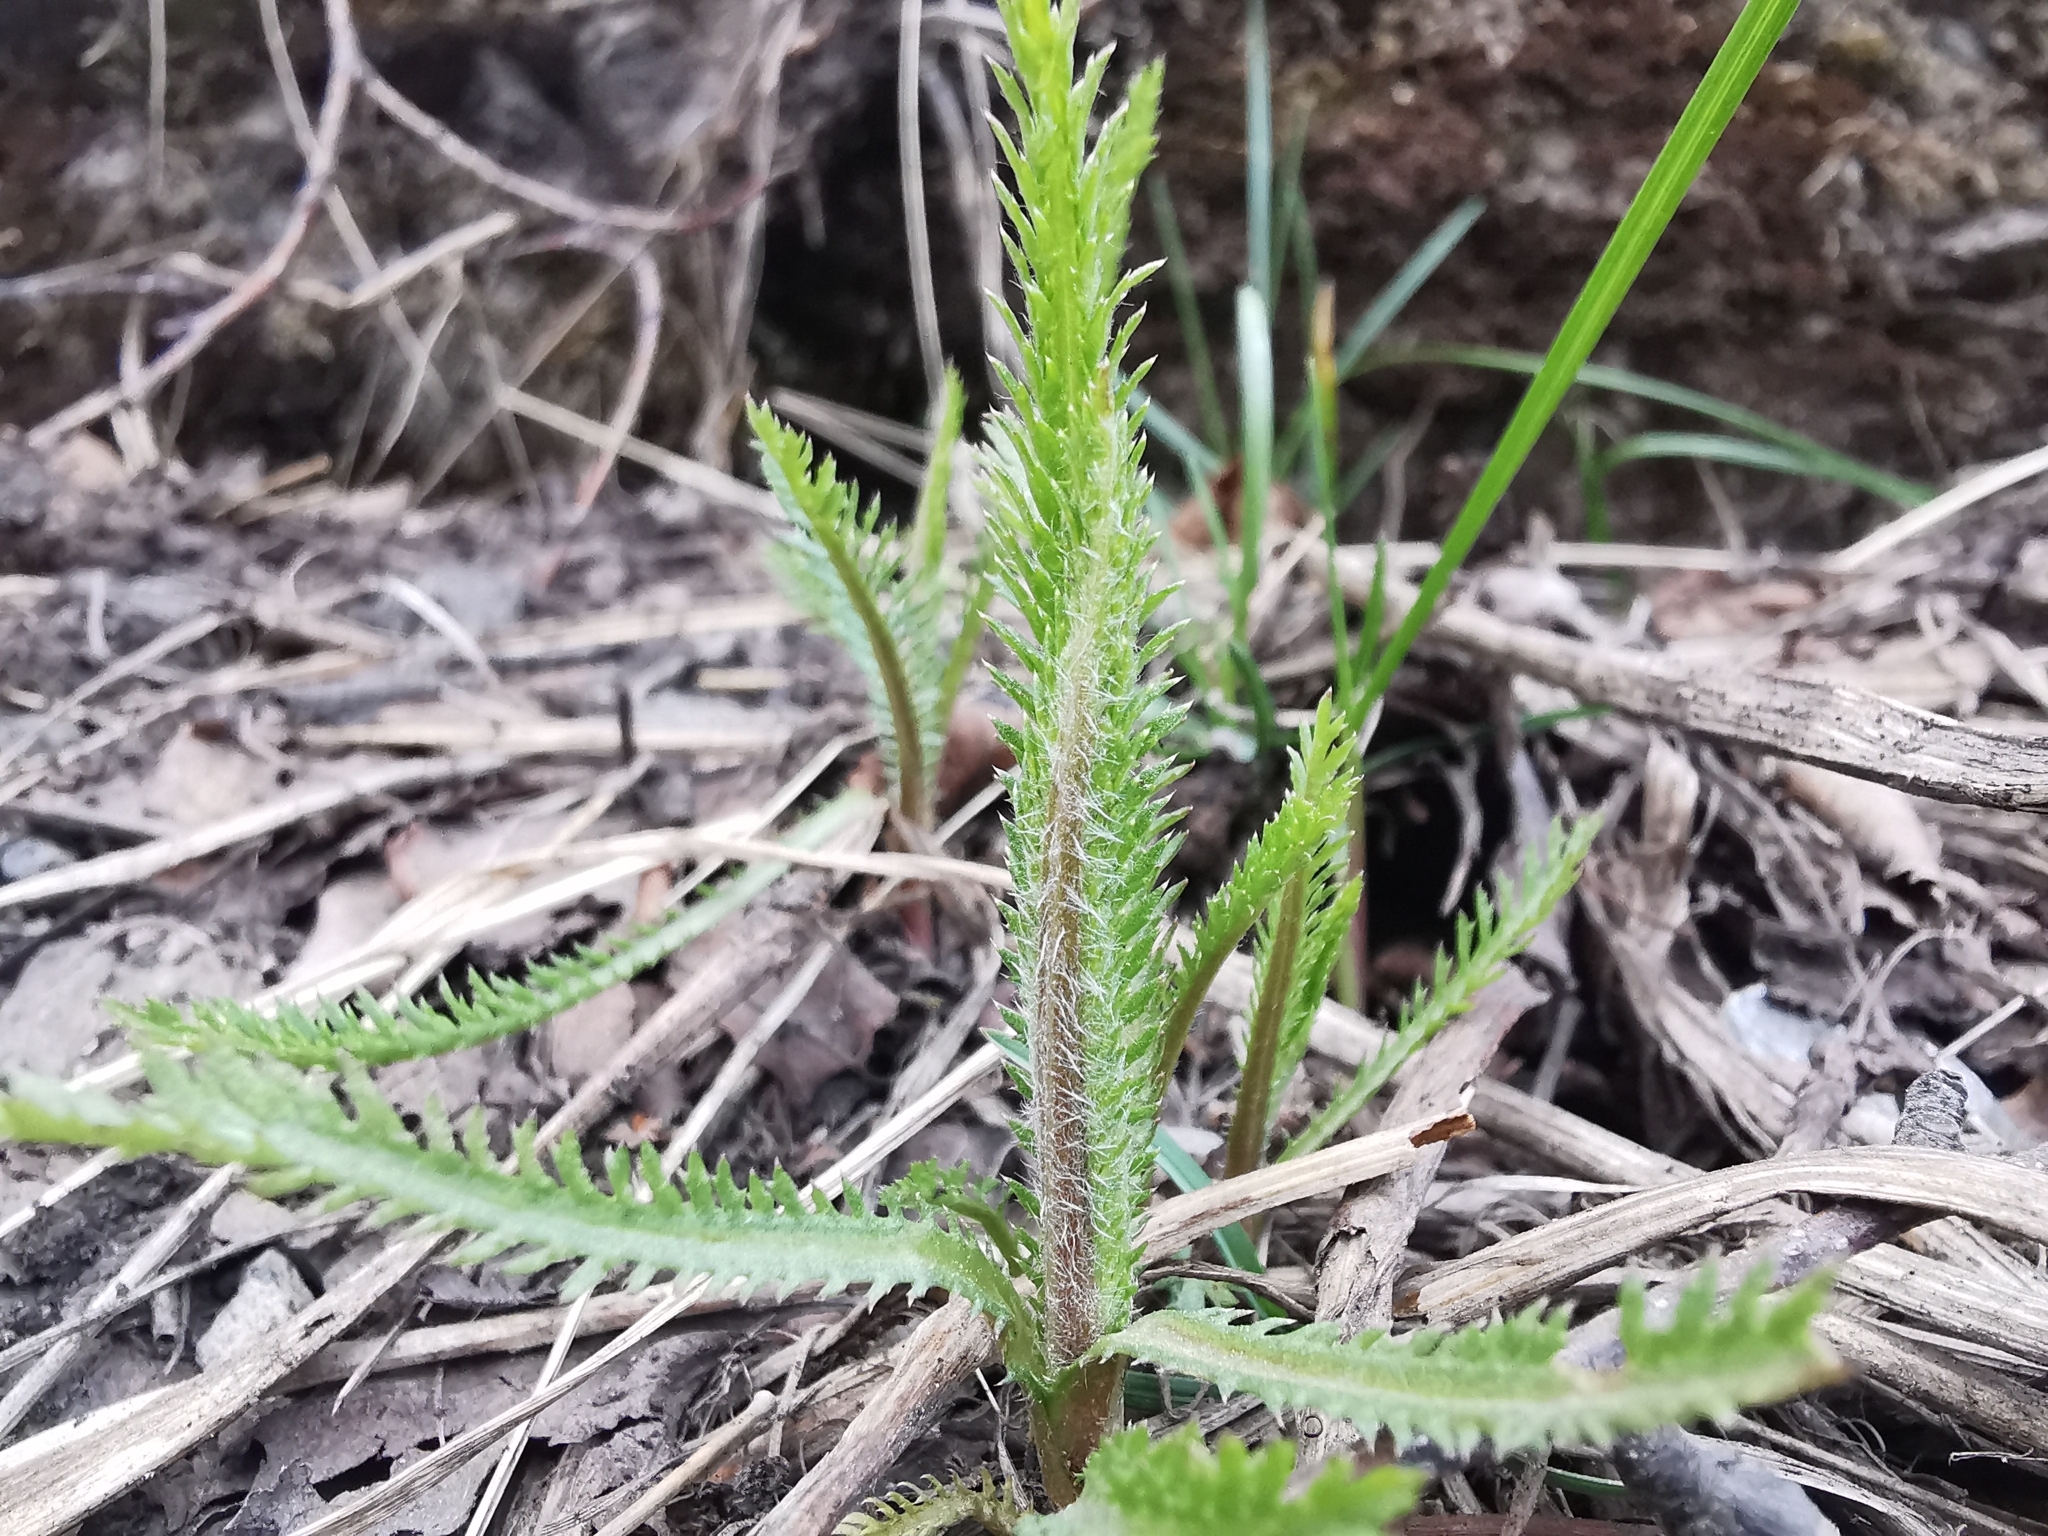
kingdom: Plantae
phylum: Tracheophyta
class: Magnoliopsida
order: Asterales
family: Asteraceae
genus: Achillea
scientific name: Achillea alpina
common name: Siberian yarrow
